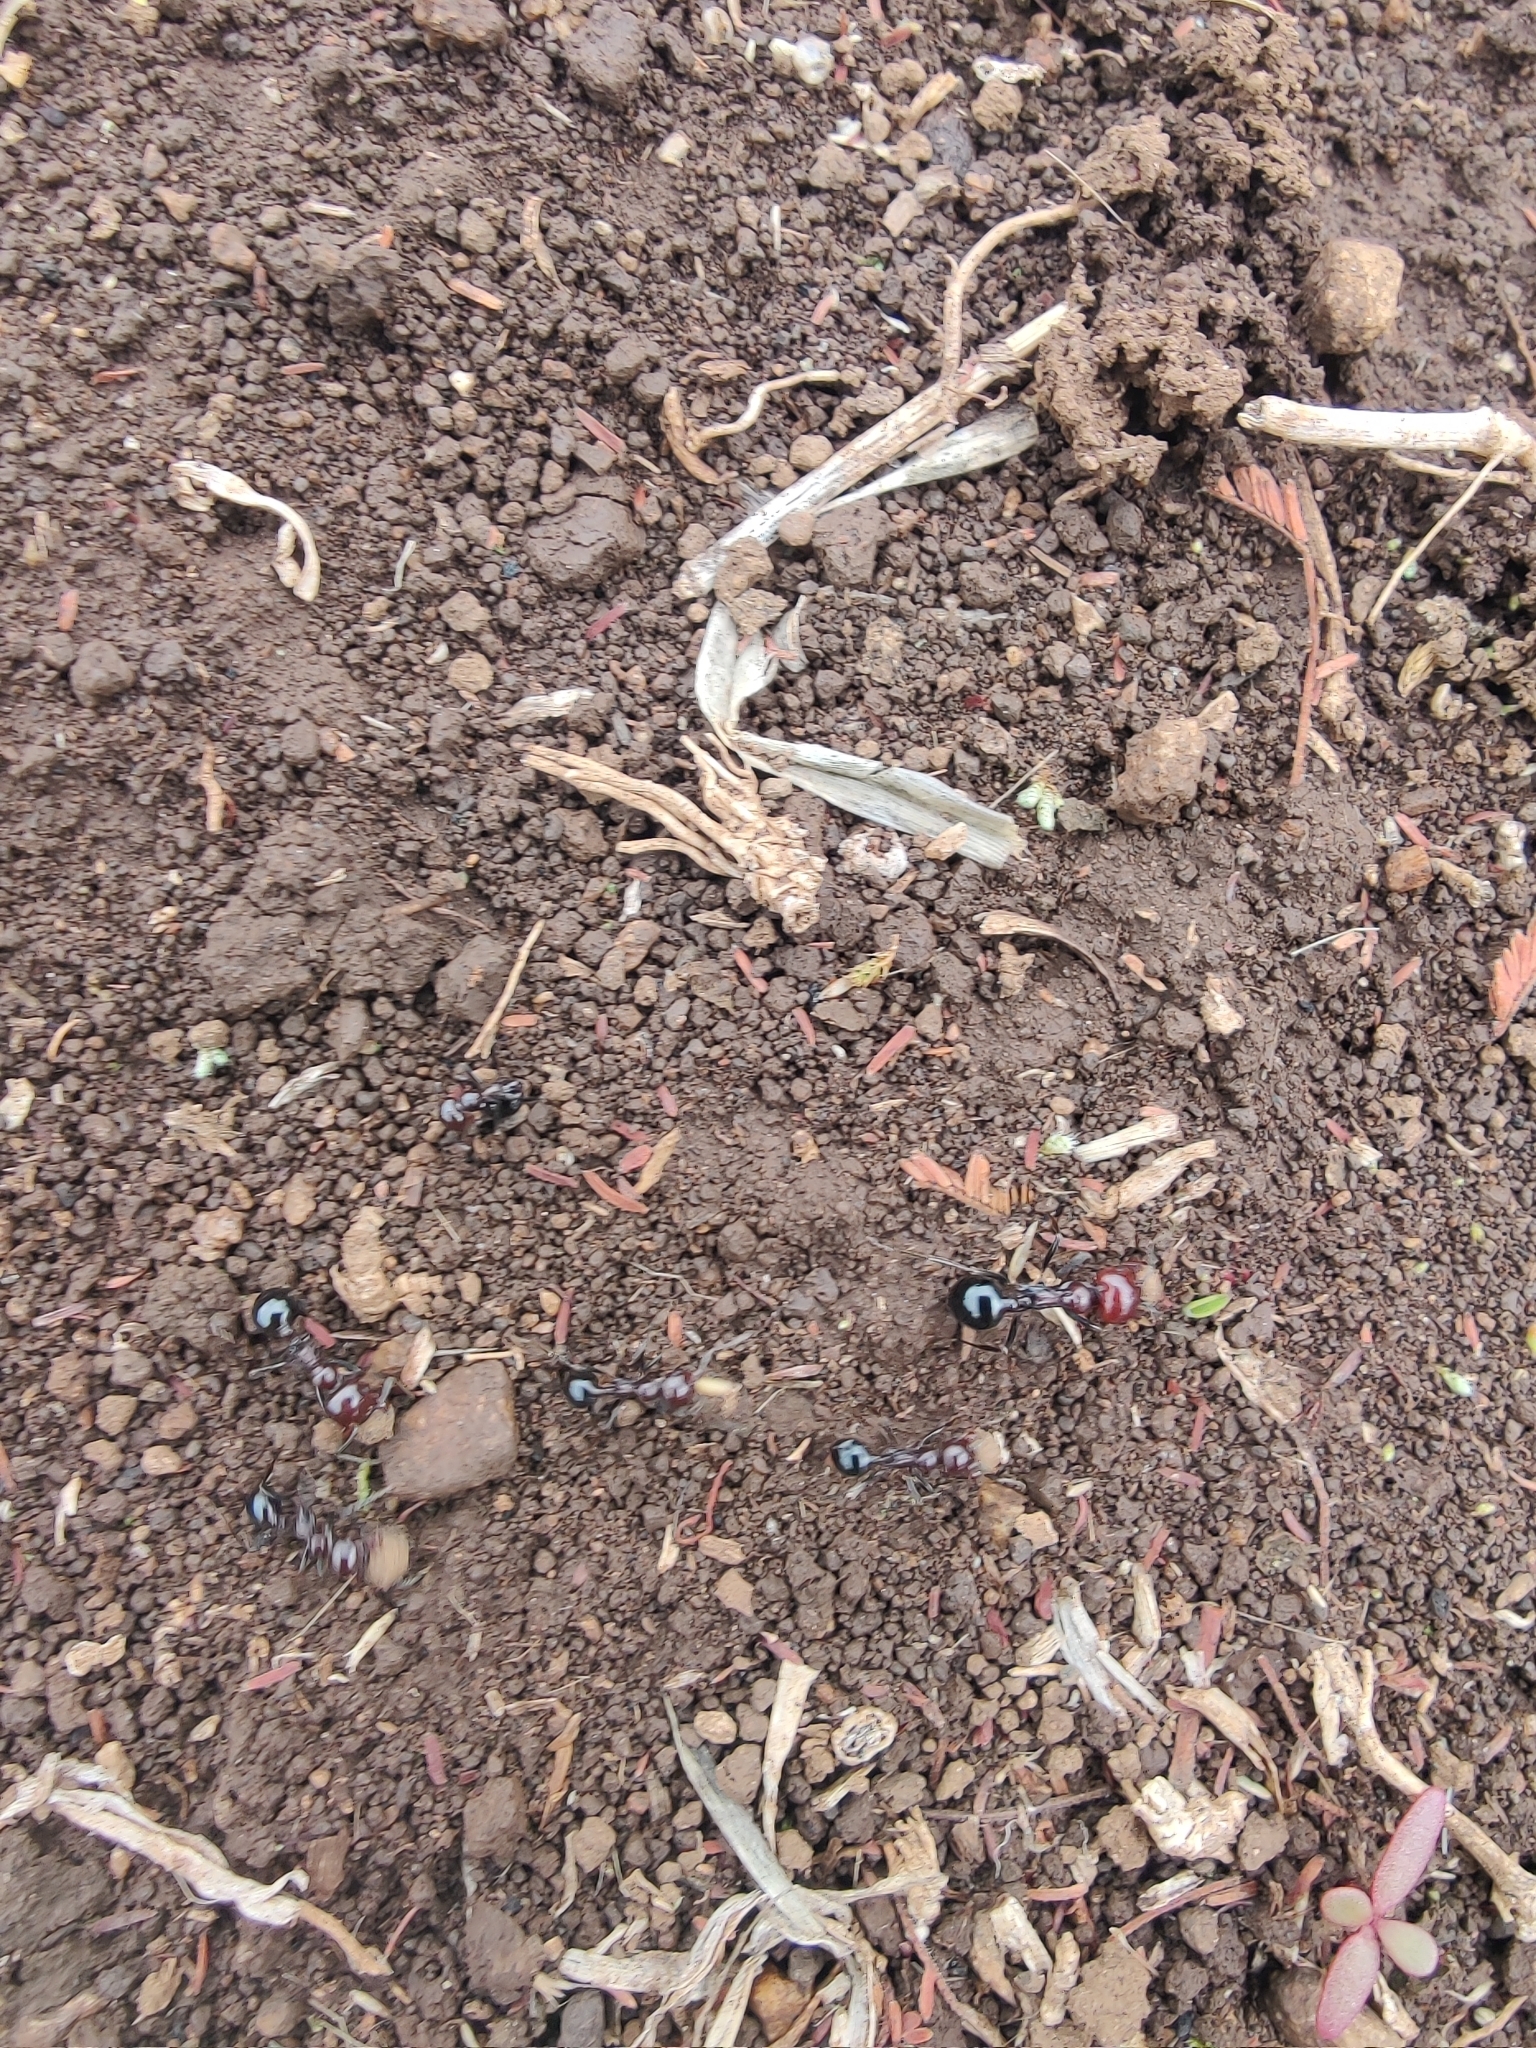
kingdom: Animalia
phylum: Arthropoda
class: Insecta
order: Hymenoptera
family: Formicidae
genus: Messor
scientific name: Messor angularis
